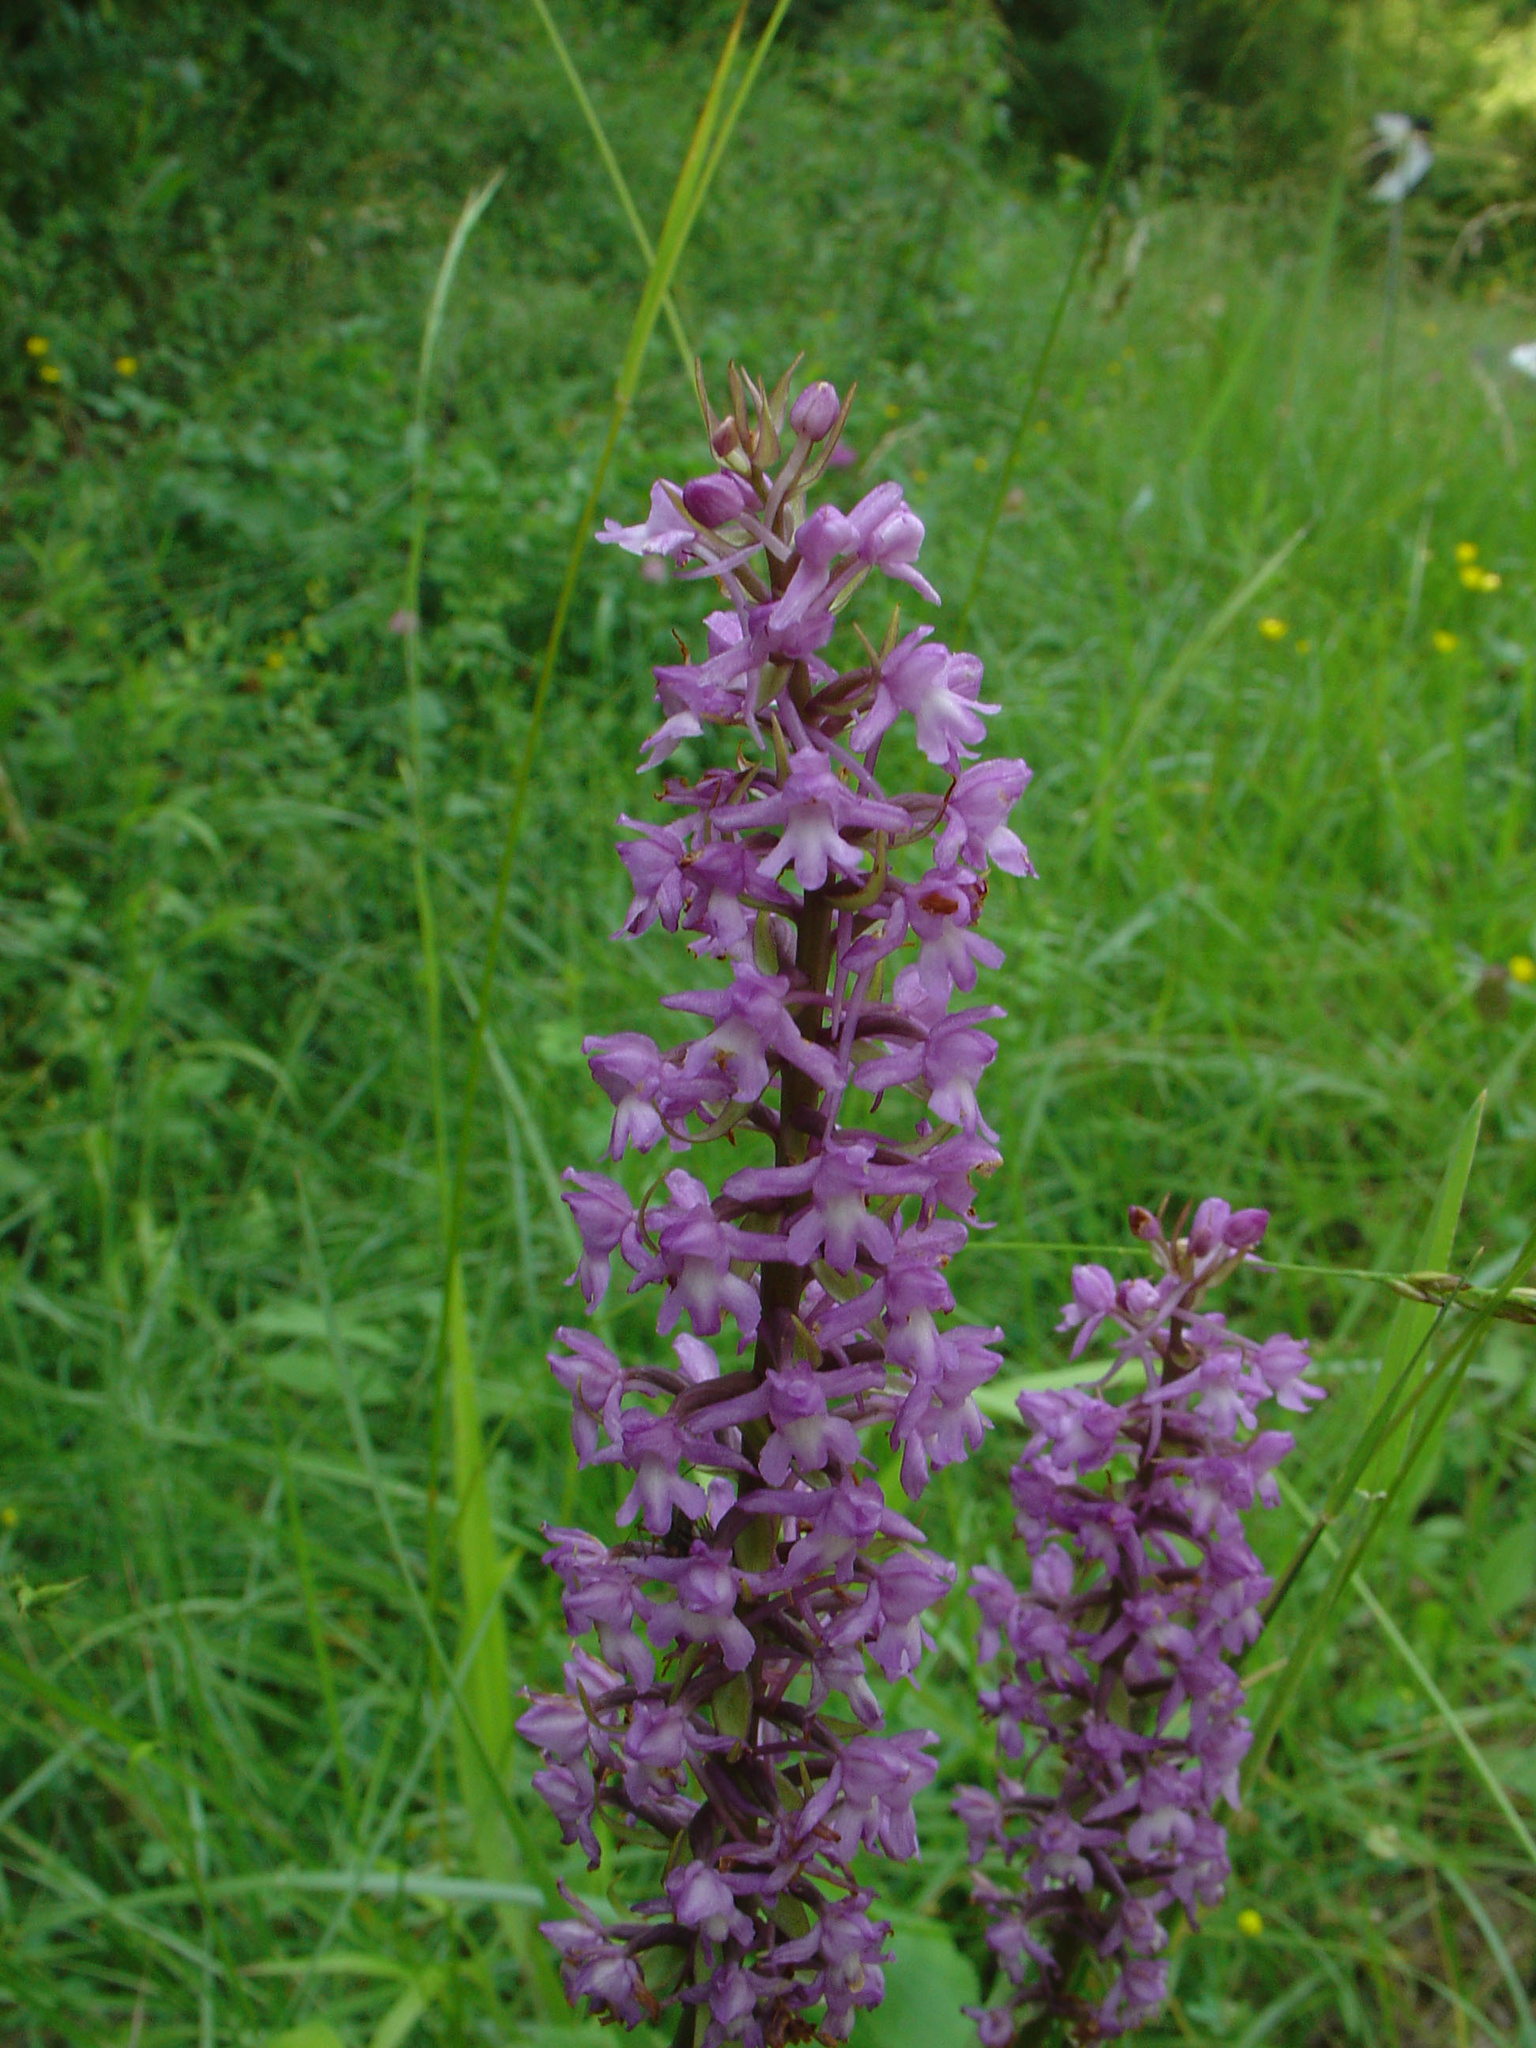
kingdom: Plantae
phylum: Tracheophyta
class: Liliopsida
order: Asparagales
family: Orchidaceae
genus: Gymnadenia
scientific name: Gymnadenia conopsea
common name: Fragrant orchid
